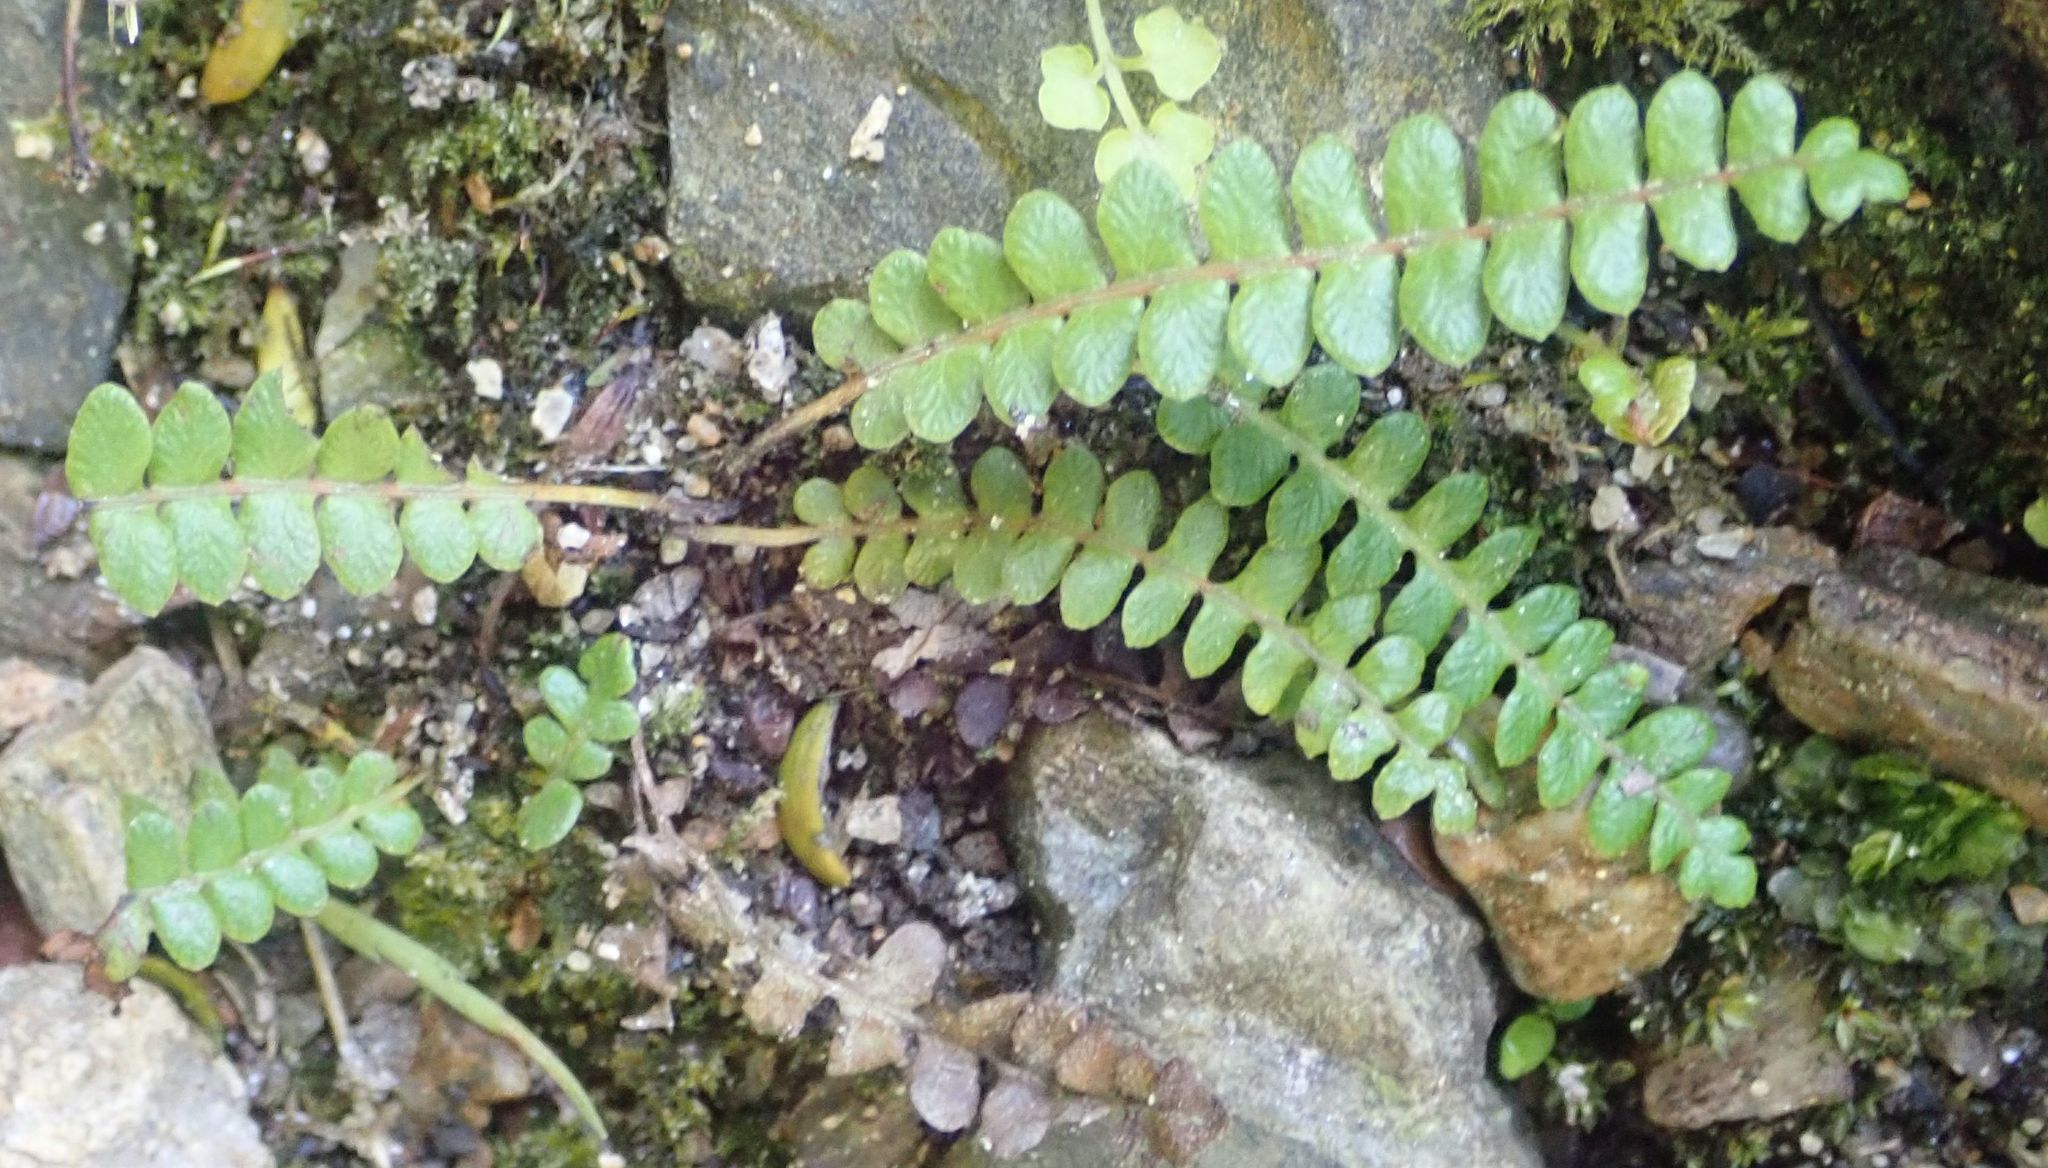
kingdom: Plantae
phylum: Tracheophyta
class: Polypodiopsida
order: Polypodiales
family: Blechnaceae
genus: Austroblechnum
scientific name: Austroblechnum penna-marina
